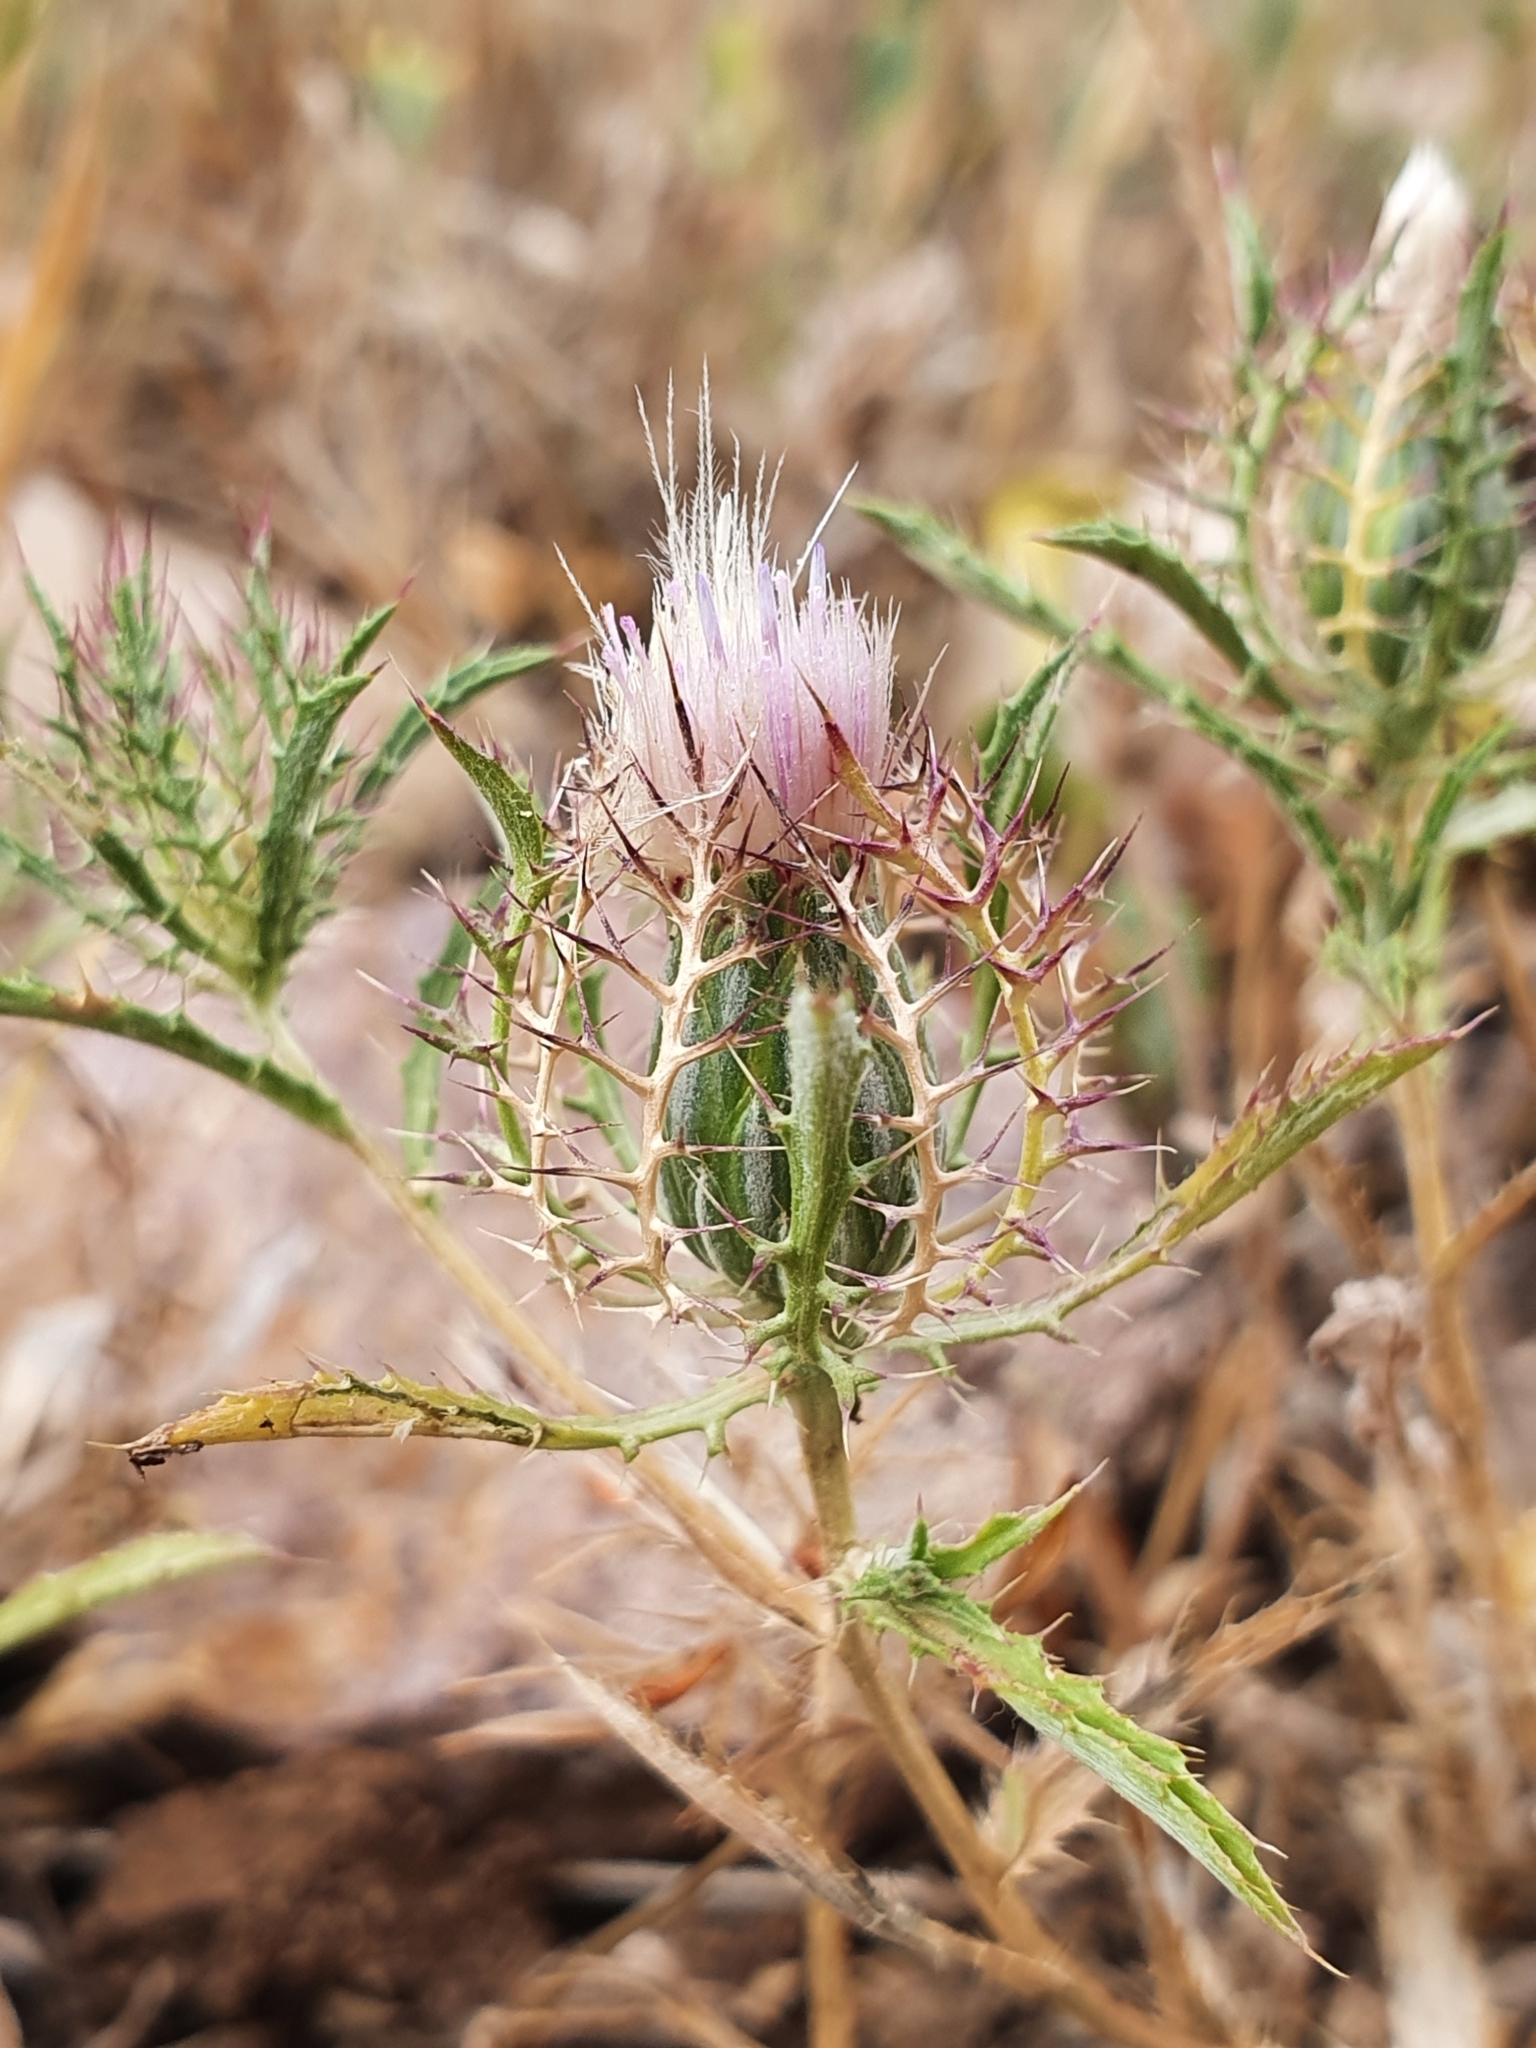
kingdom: Plantae
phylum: Tracheophyta
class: Magnoliopsida
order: Asterales
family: Asteraceae
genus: Atractylis
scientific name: Atractylis cancellata
